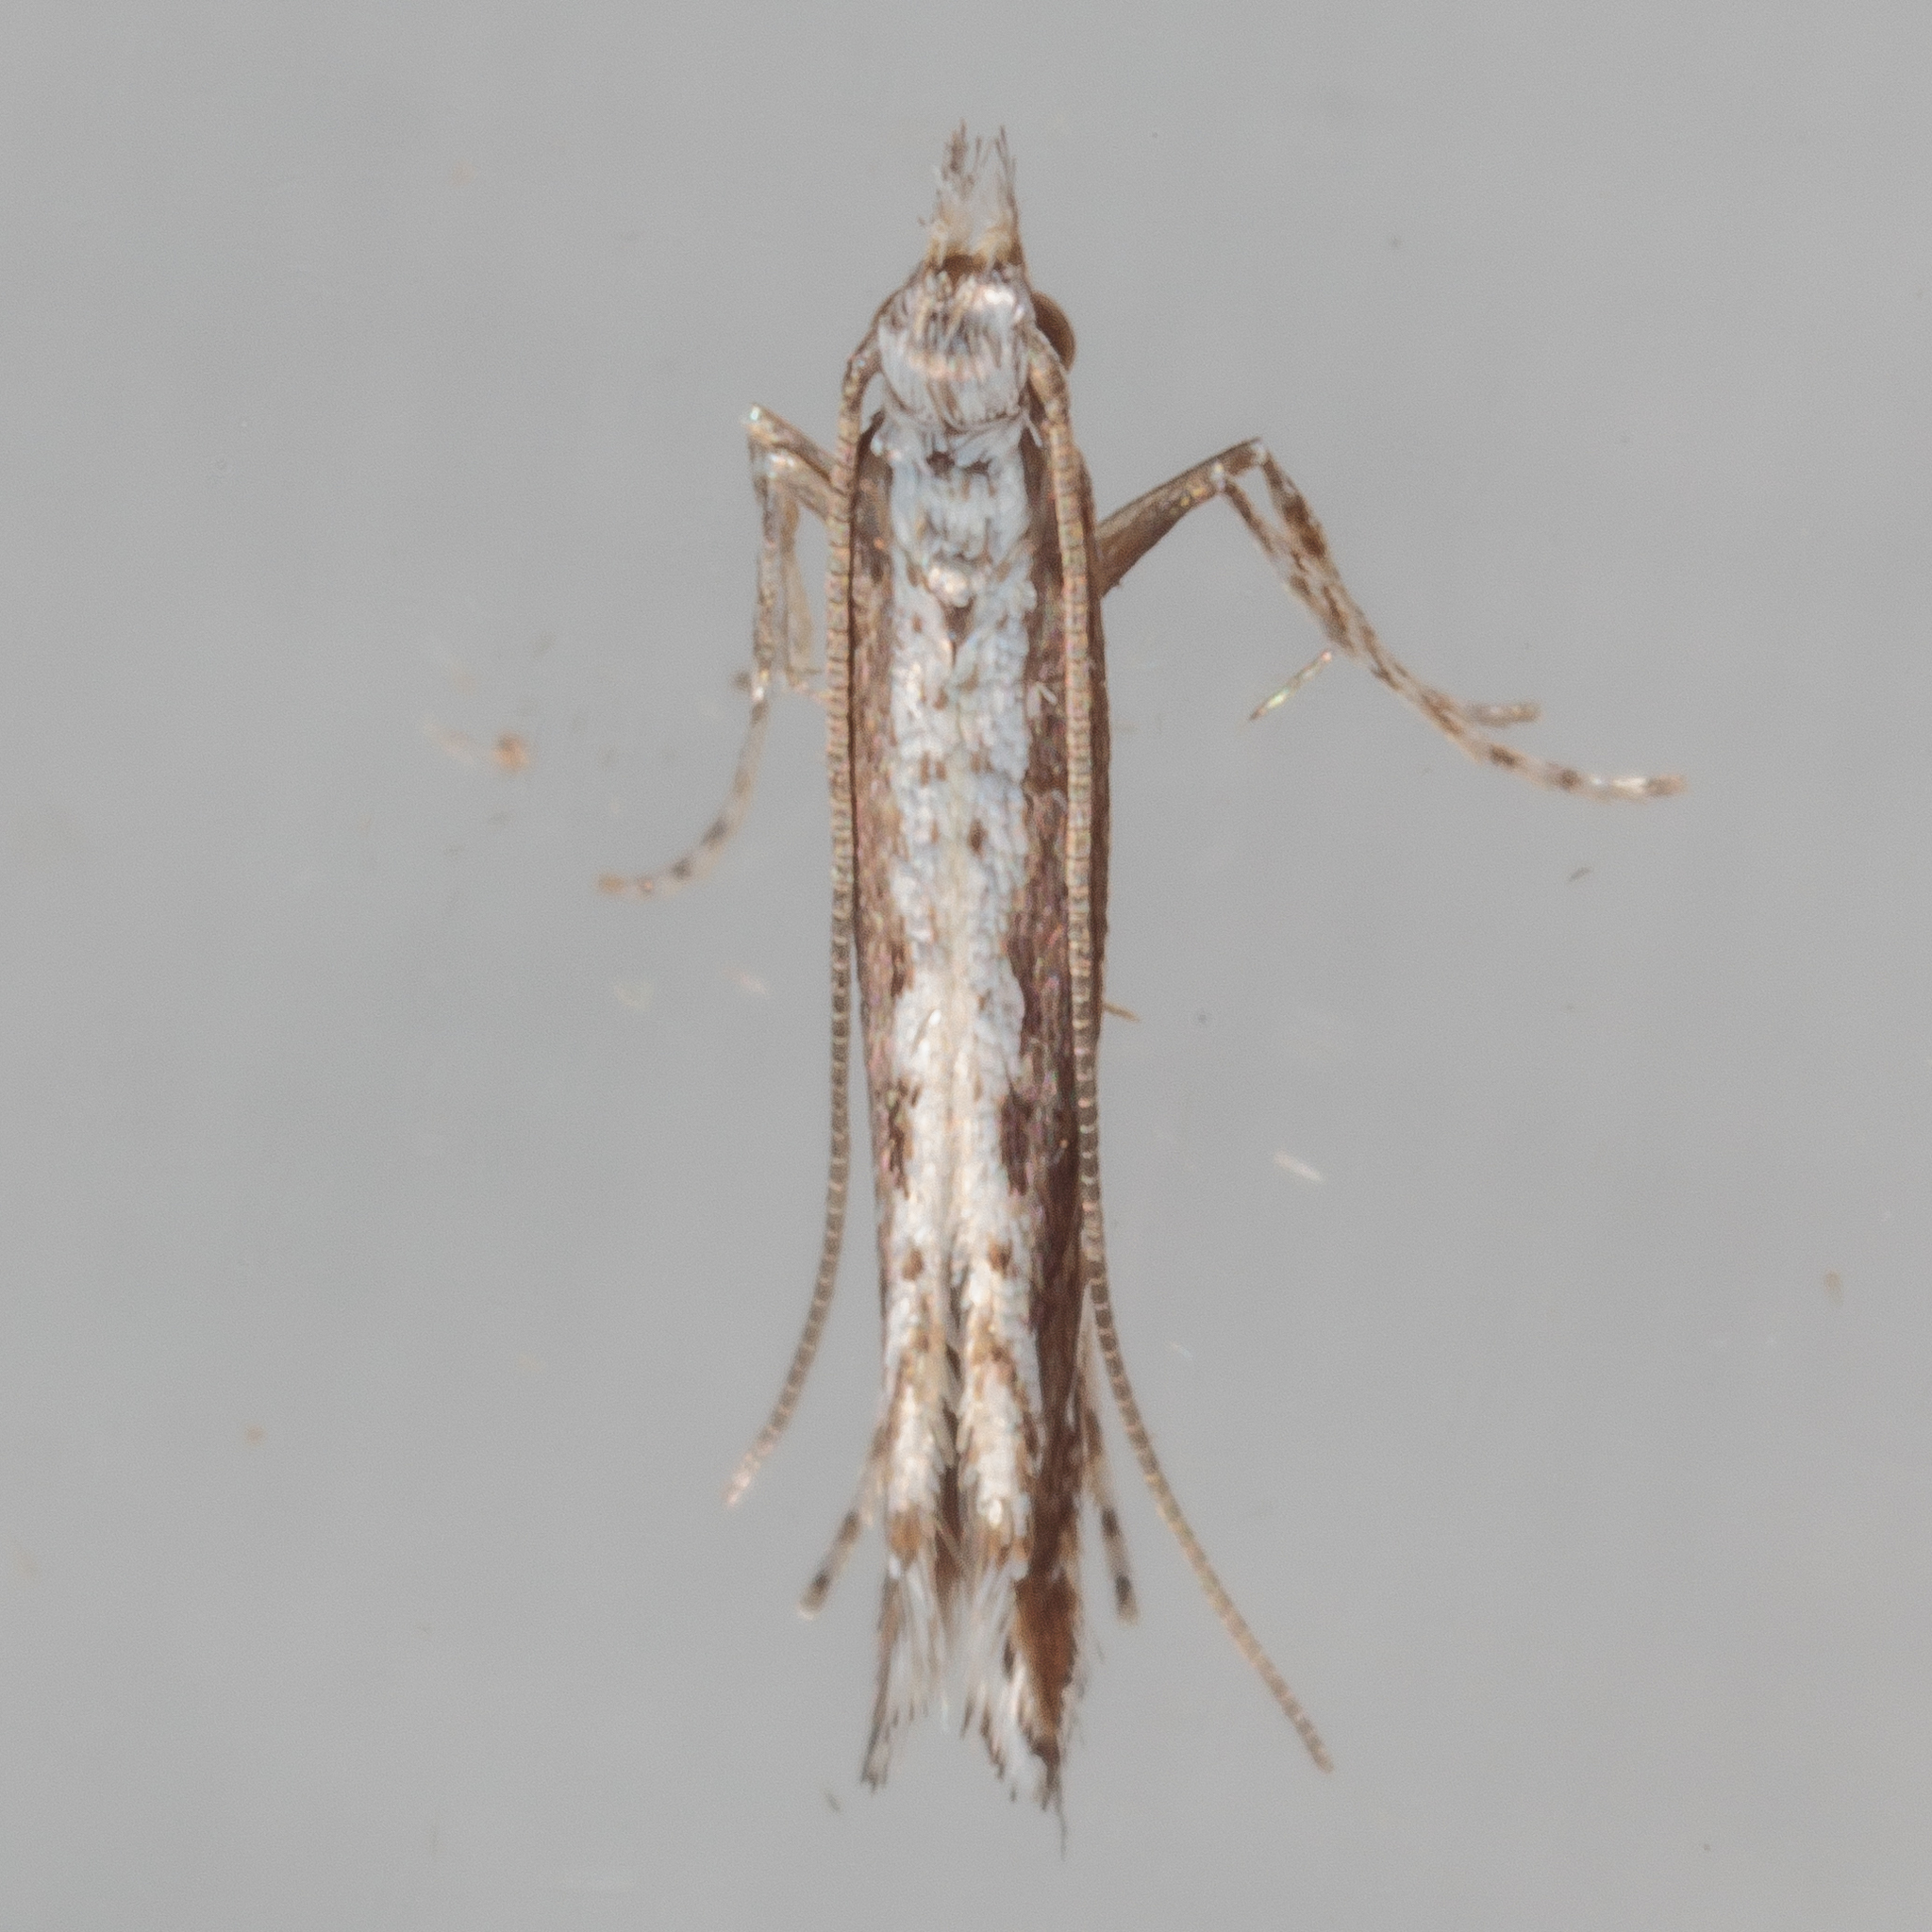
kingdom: Plantae
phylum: Rhodophyta
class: Florideophyceae
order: Gracilariales
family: Gracilariaceae
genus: Gracilaria
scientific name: Gracilaria
